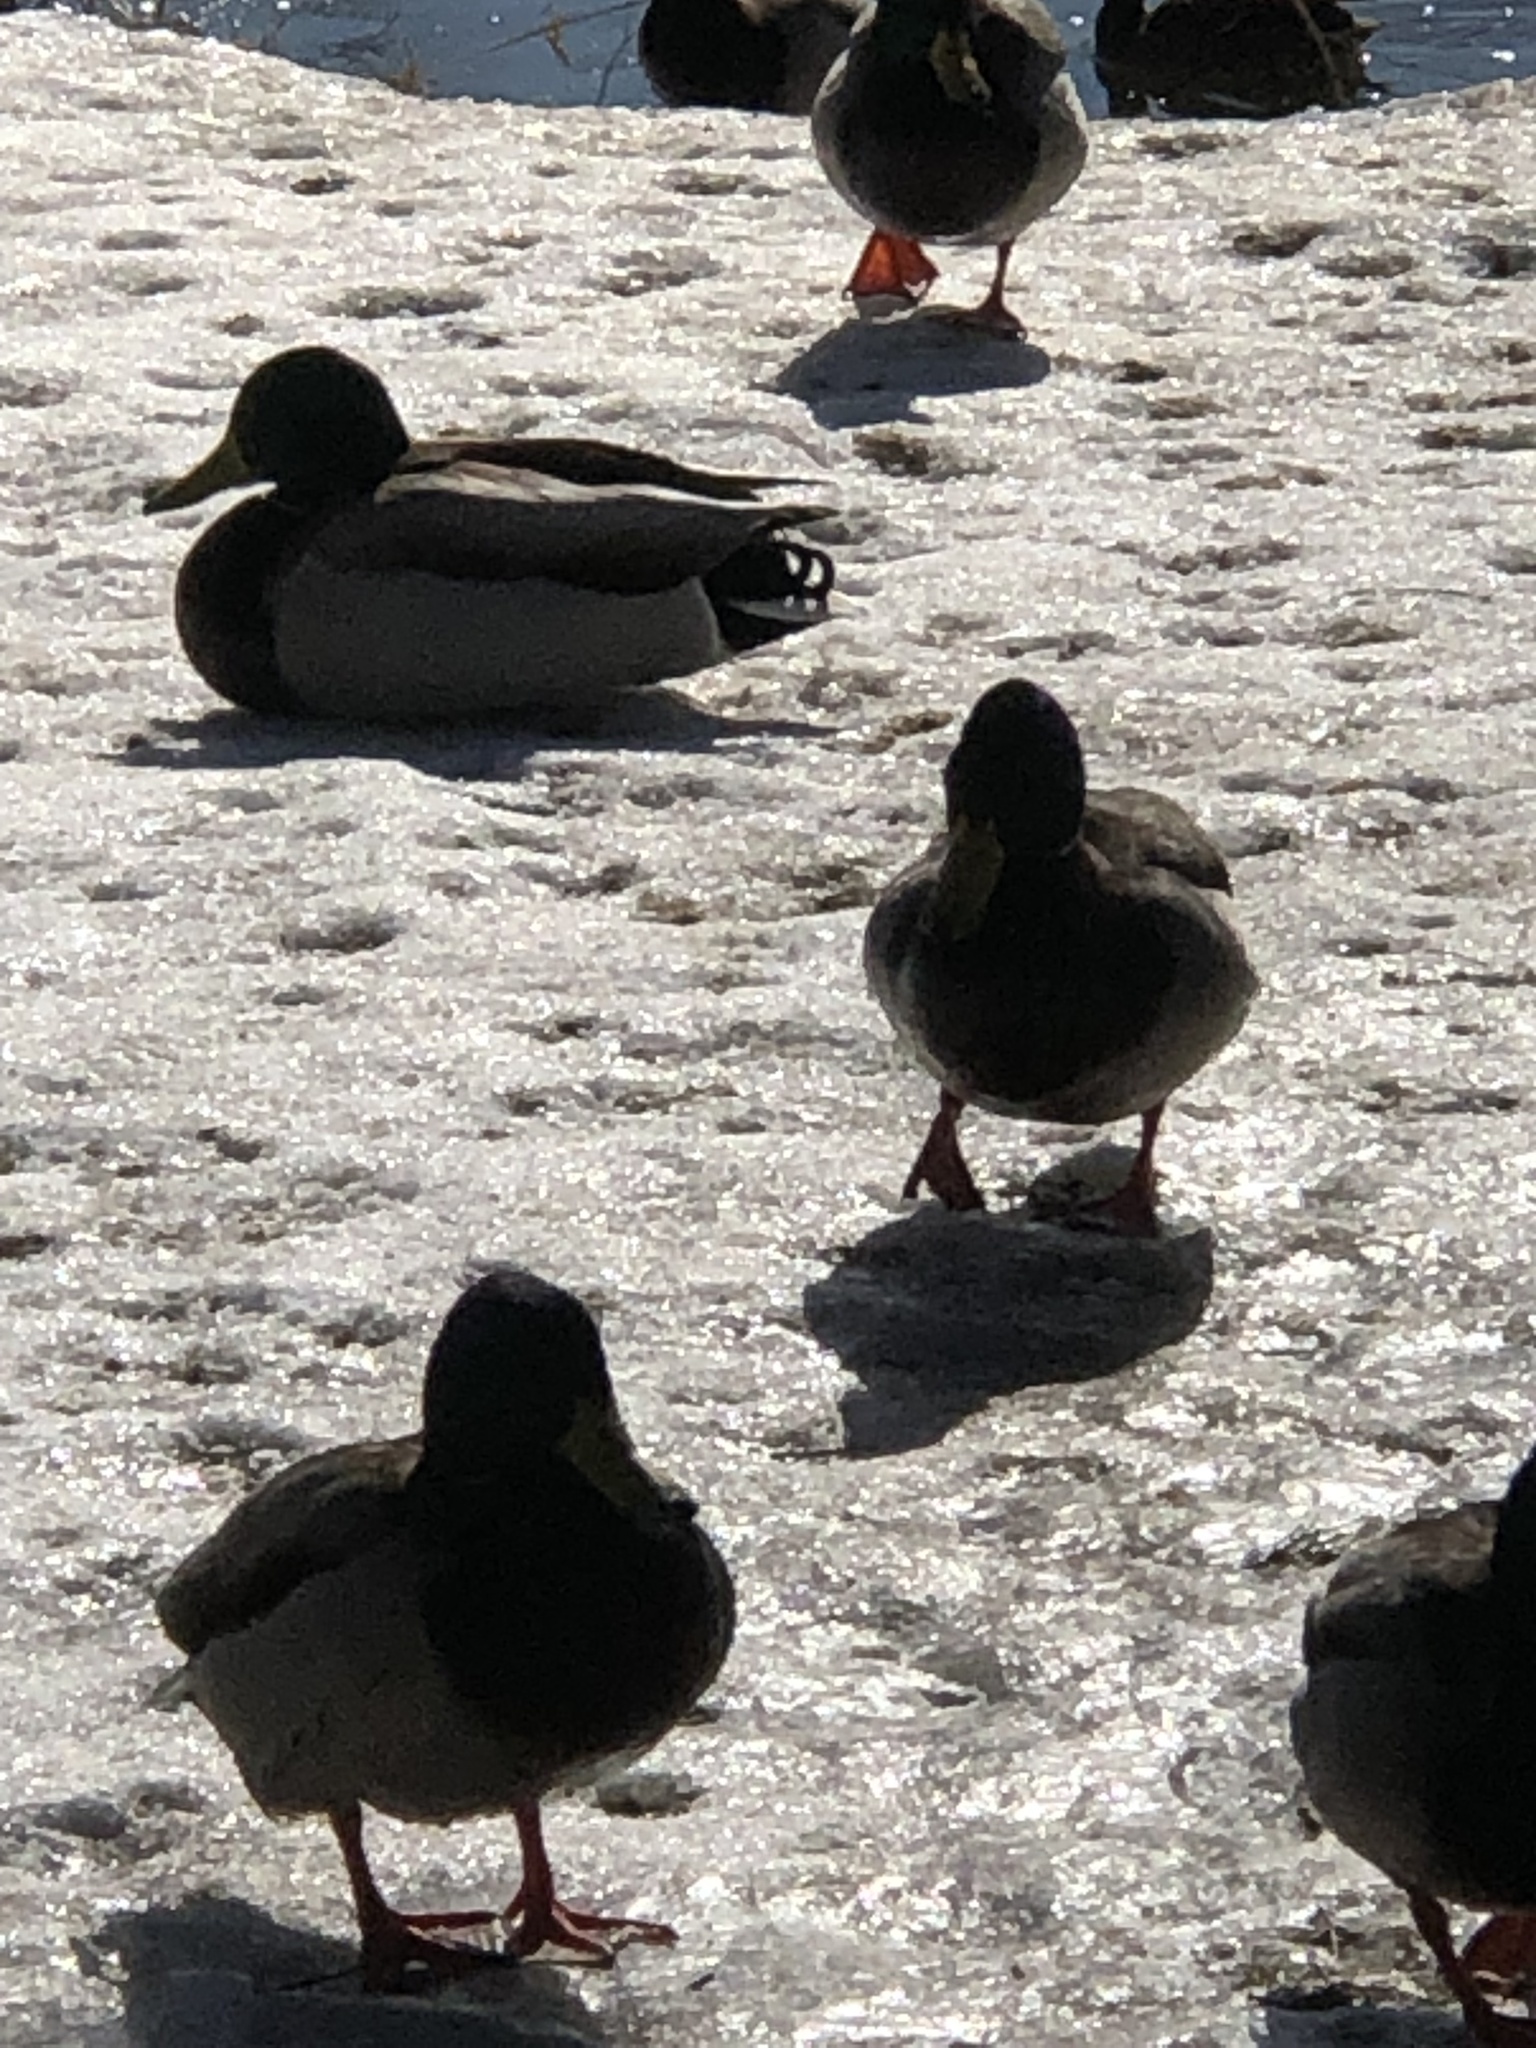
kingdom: Animalia
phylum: Chordata
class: Aves
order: Anseriformes
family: Anatidae
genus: Anas
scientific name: Anas platyrhynchos
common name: Mallard
